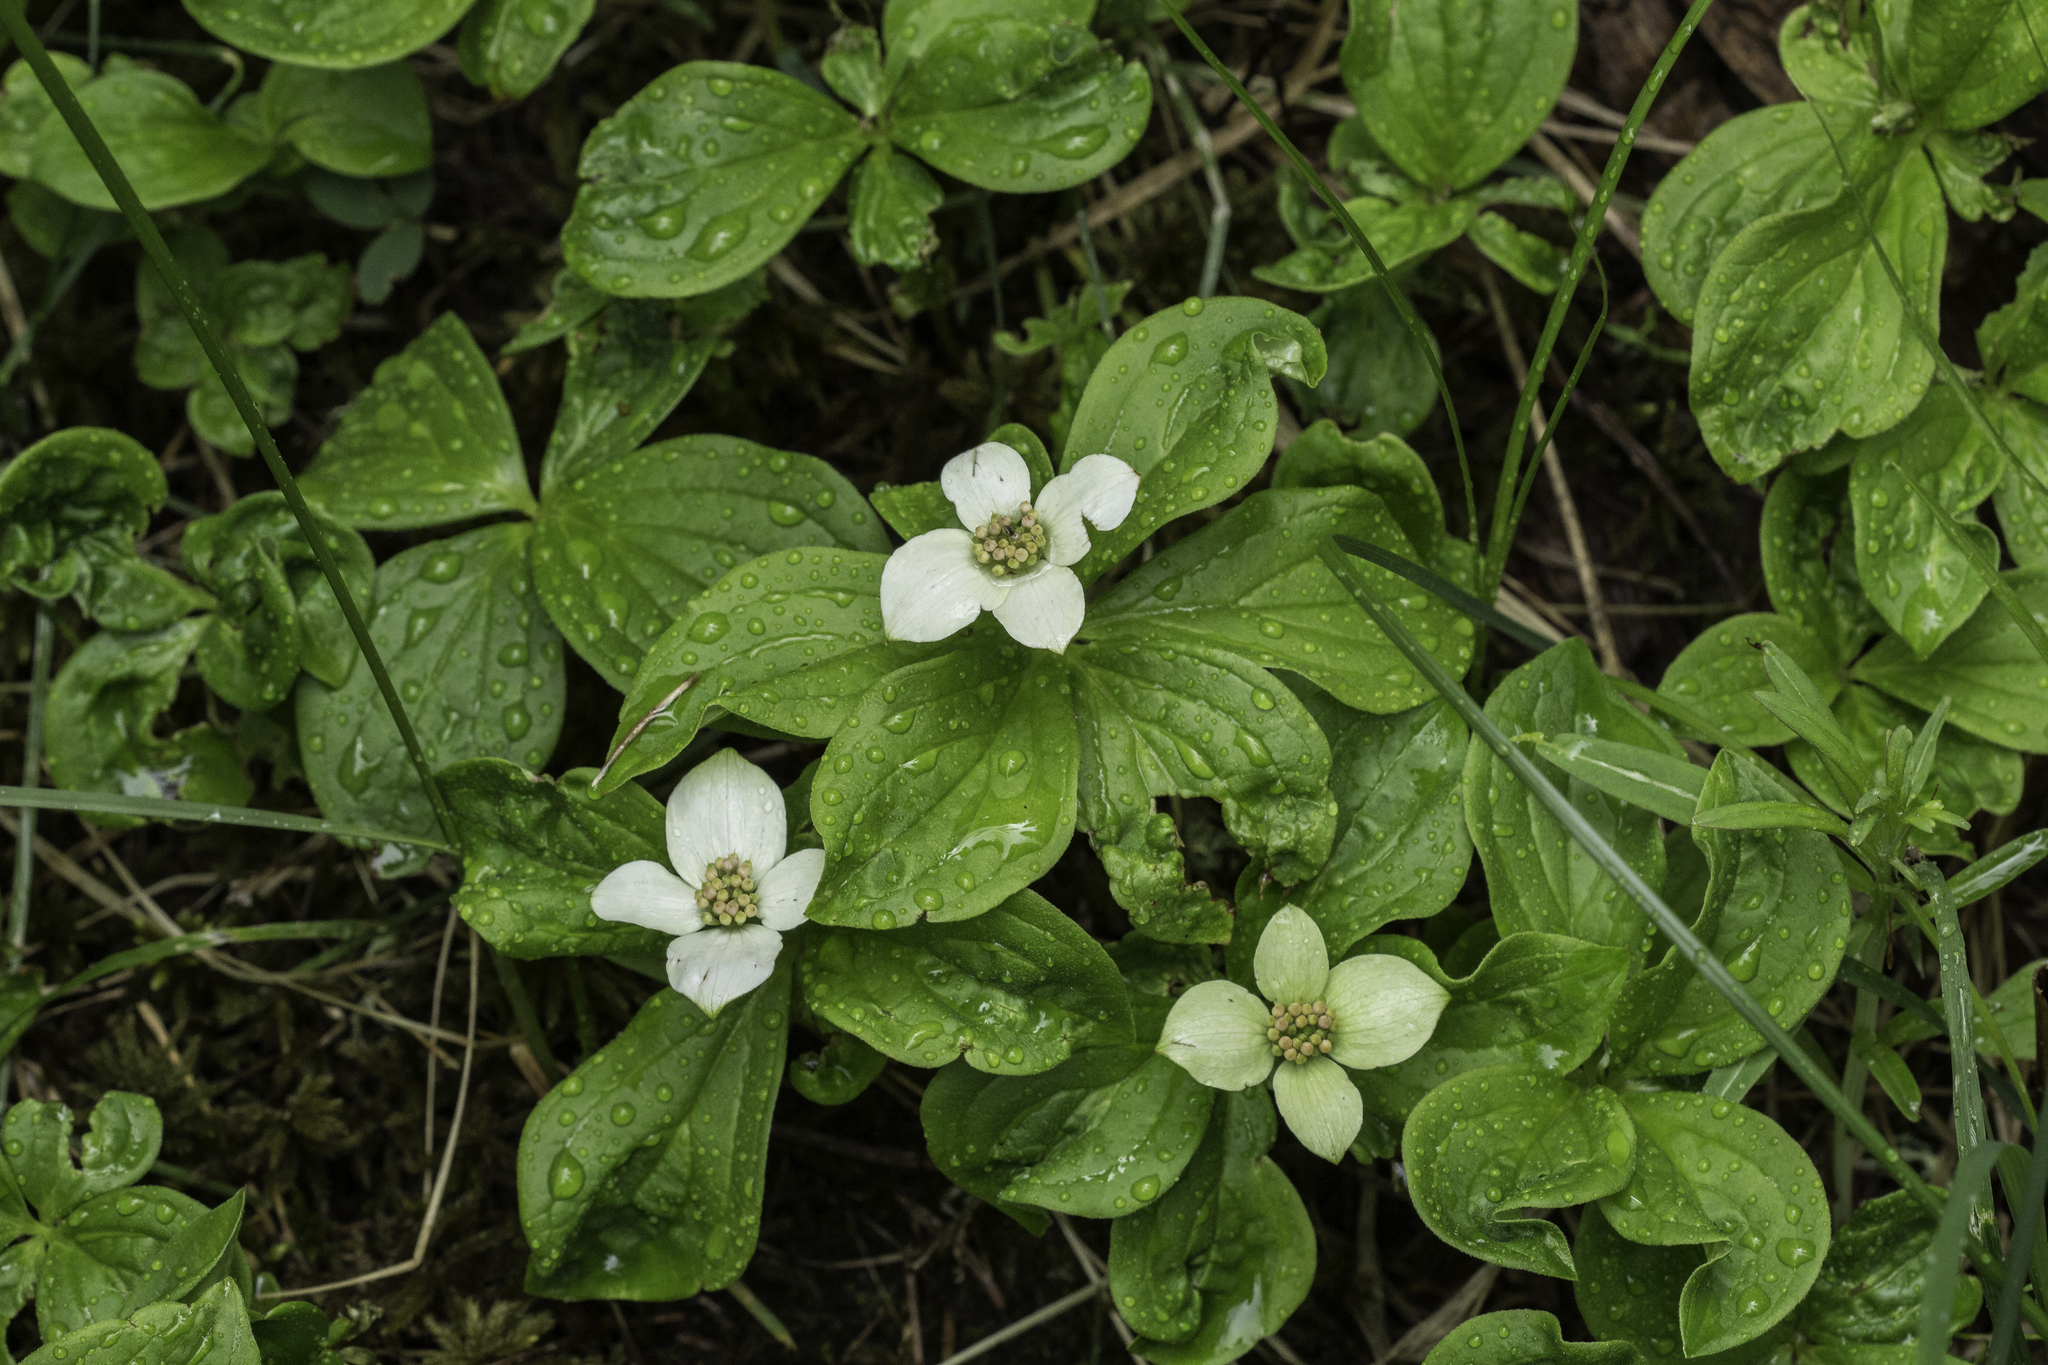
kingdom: Plantae
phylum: Tracheophyta
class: Magnoliopsida
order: Cornales
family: Cornaceae
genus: Cornus
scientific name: Cornus canadensis
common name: Creeping dogwood
